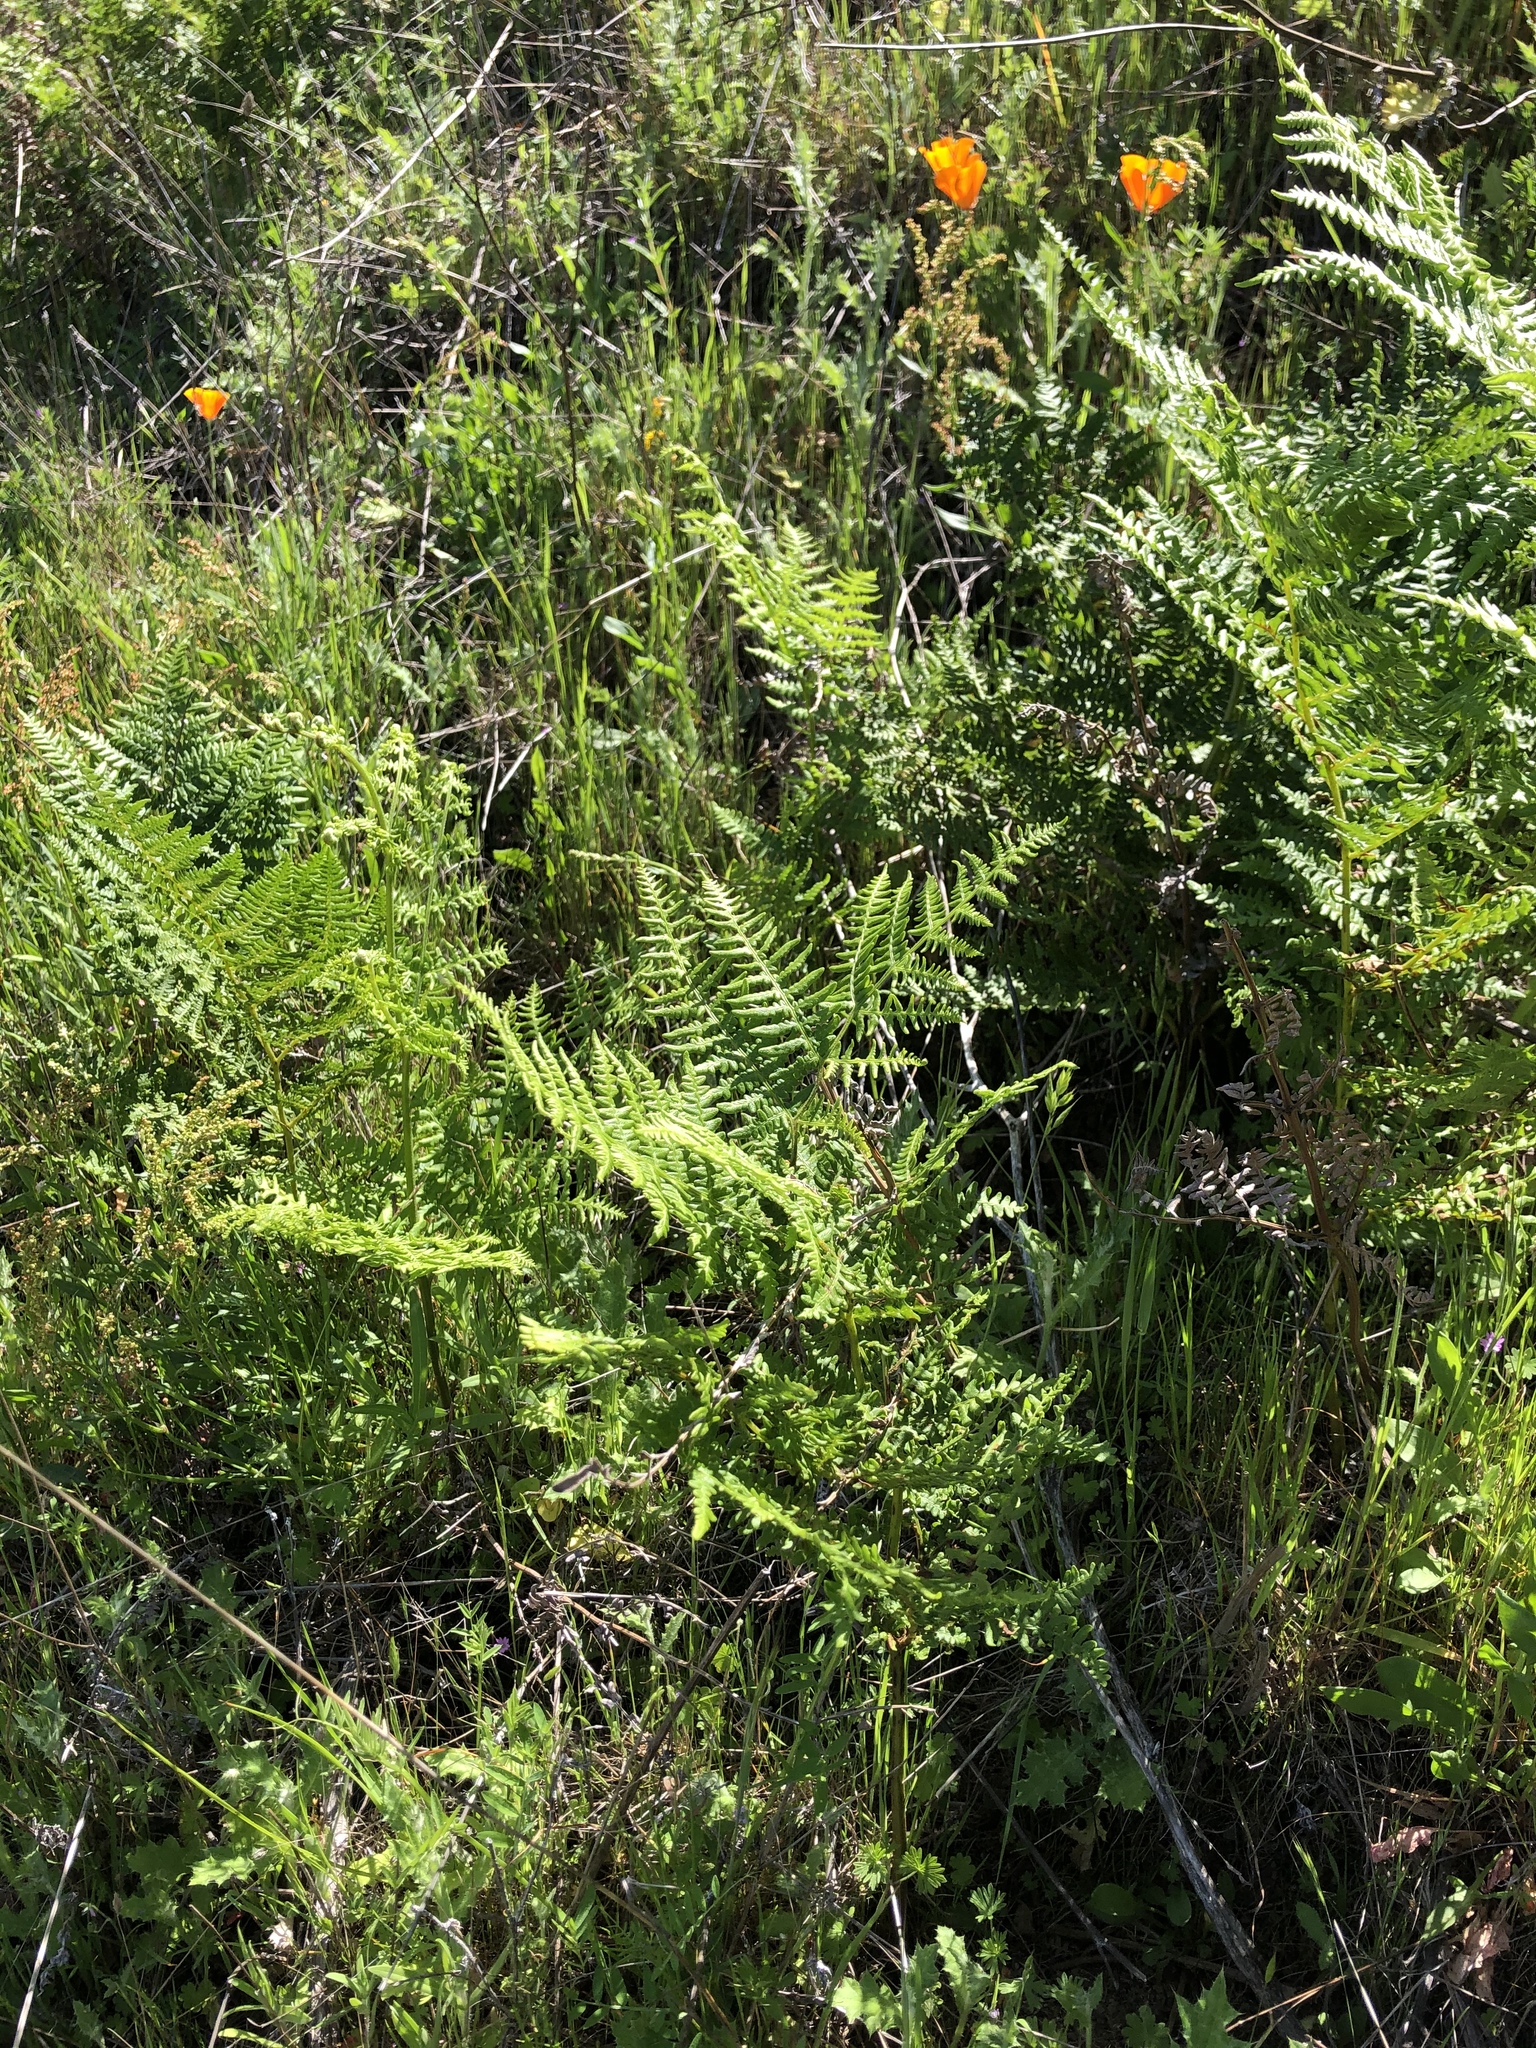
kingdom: Plantae
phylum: Tracheophyta
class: Polypodiopsida
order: Polypodiales
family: Dennstaedtiaceae
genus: Pteridium
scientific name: Pteridium aquilinum
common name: Bracken
